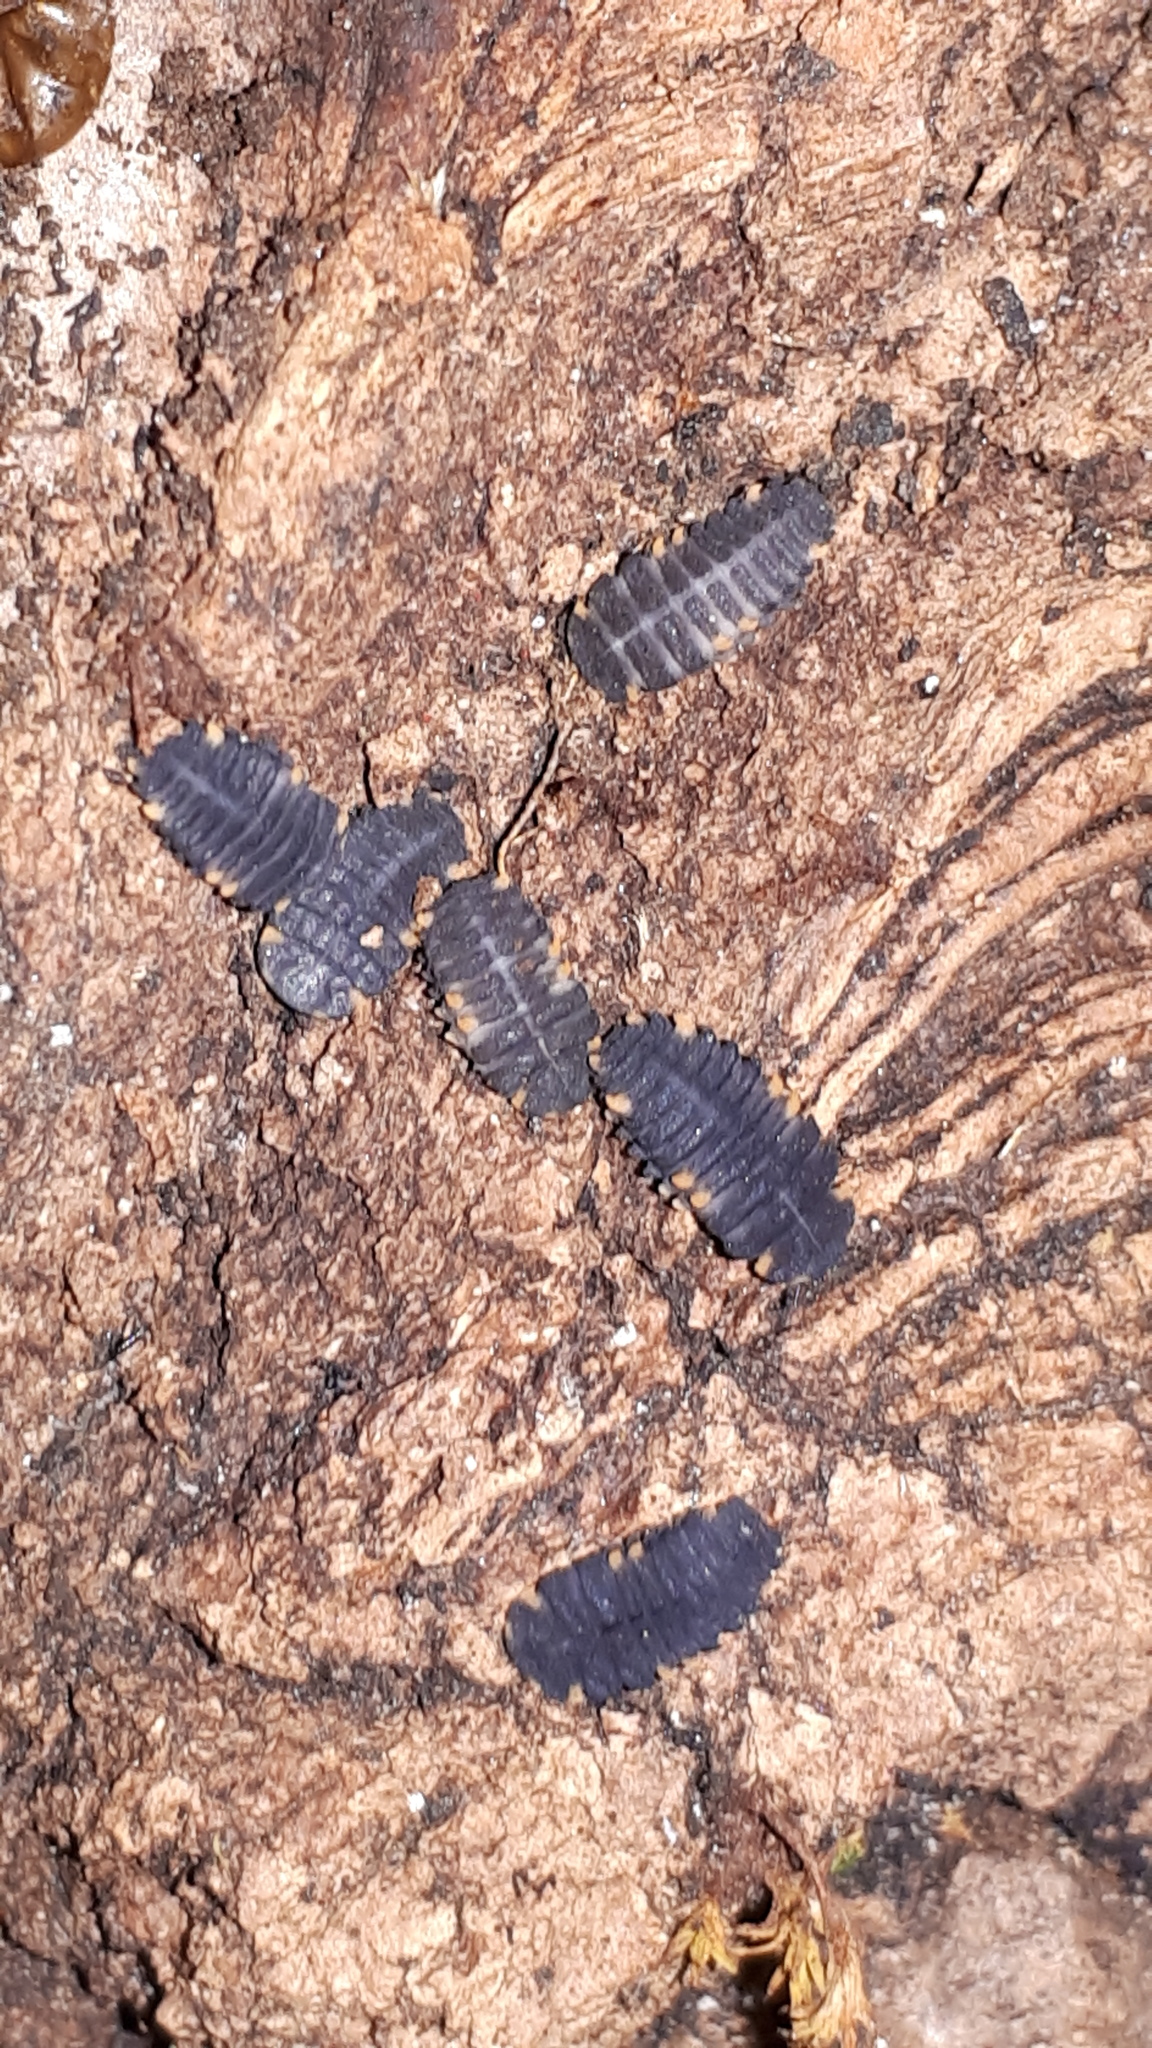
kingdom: Animalia
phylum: Arthropoda
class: Insecta
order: Coleoptera
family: Endomychidae
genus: Endomychus
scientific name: Endomychus coccineus
